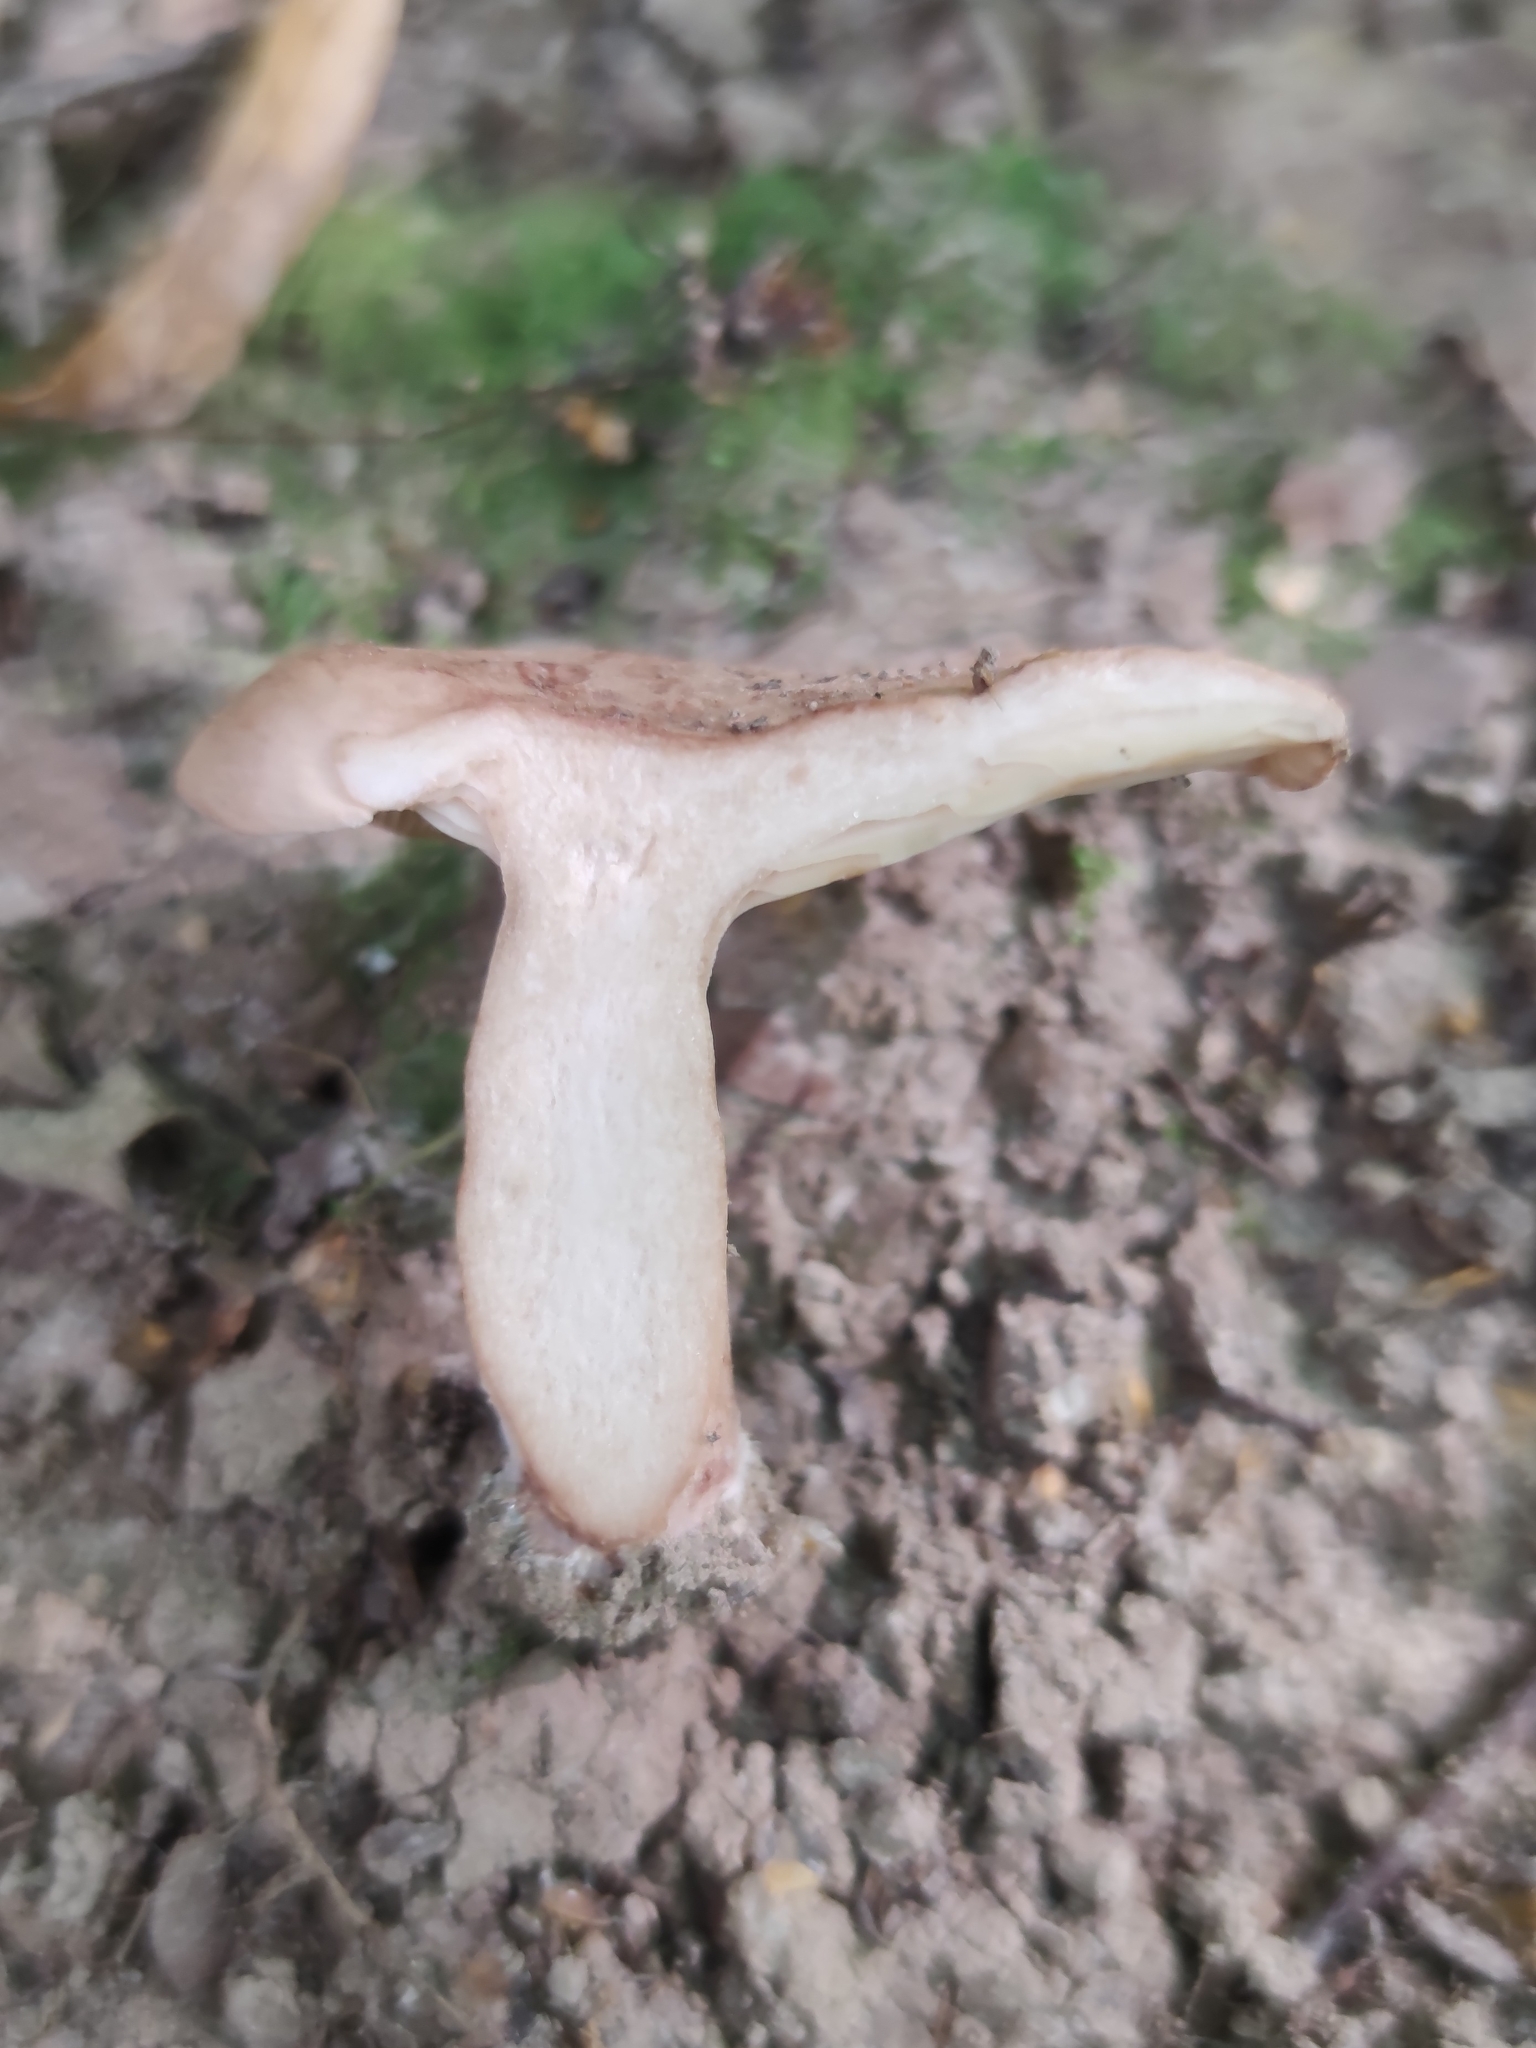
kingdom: Fungi
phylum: Basidiomycota
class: Agaricomycetes
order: Boletales
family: Paxillaceae
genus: Paxillus
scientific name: Paxillus involutus
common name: Brown roll rim
